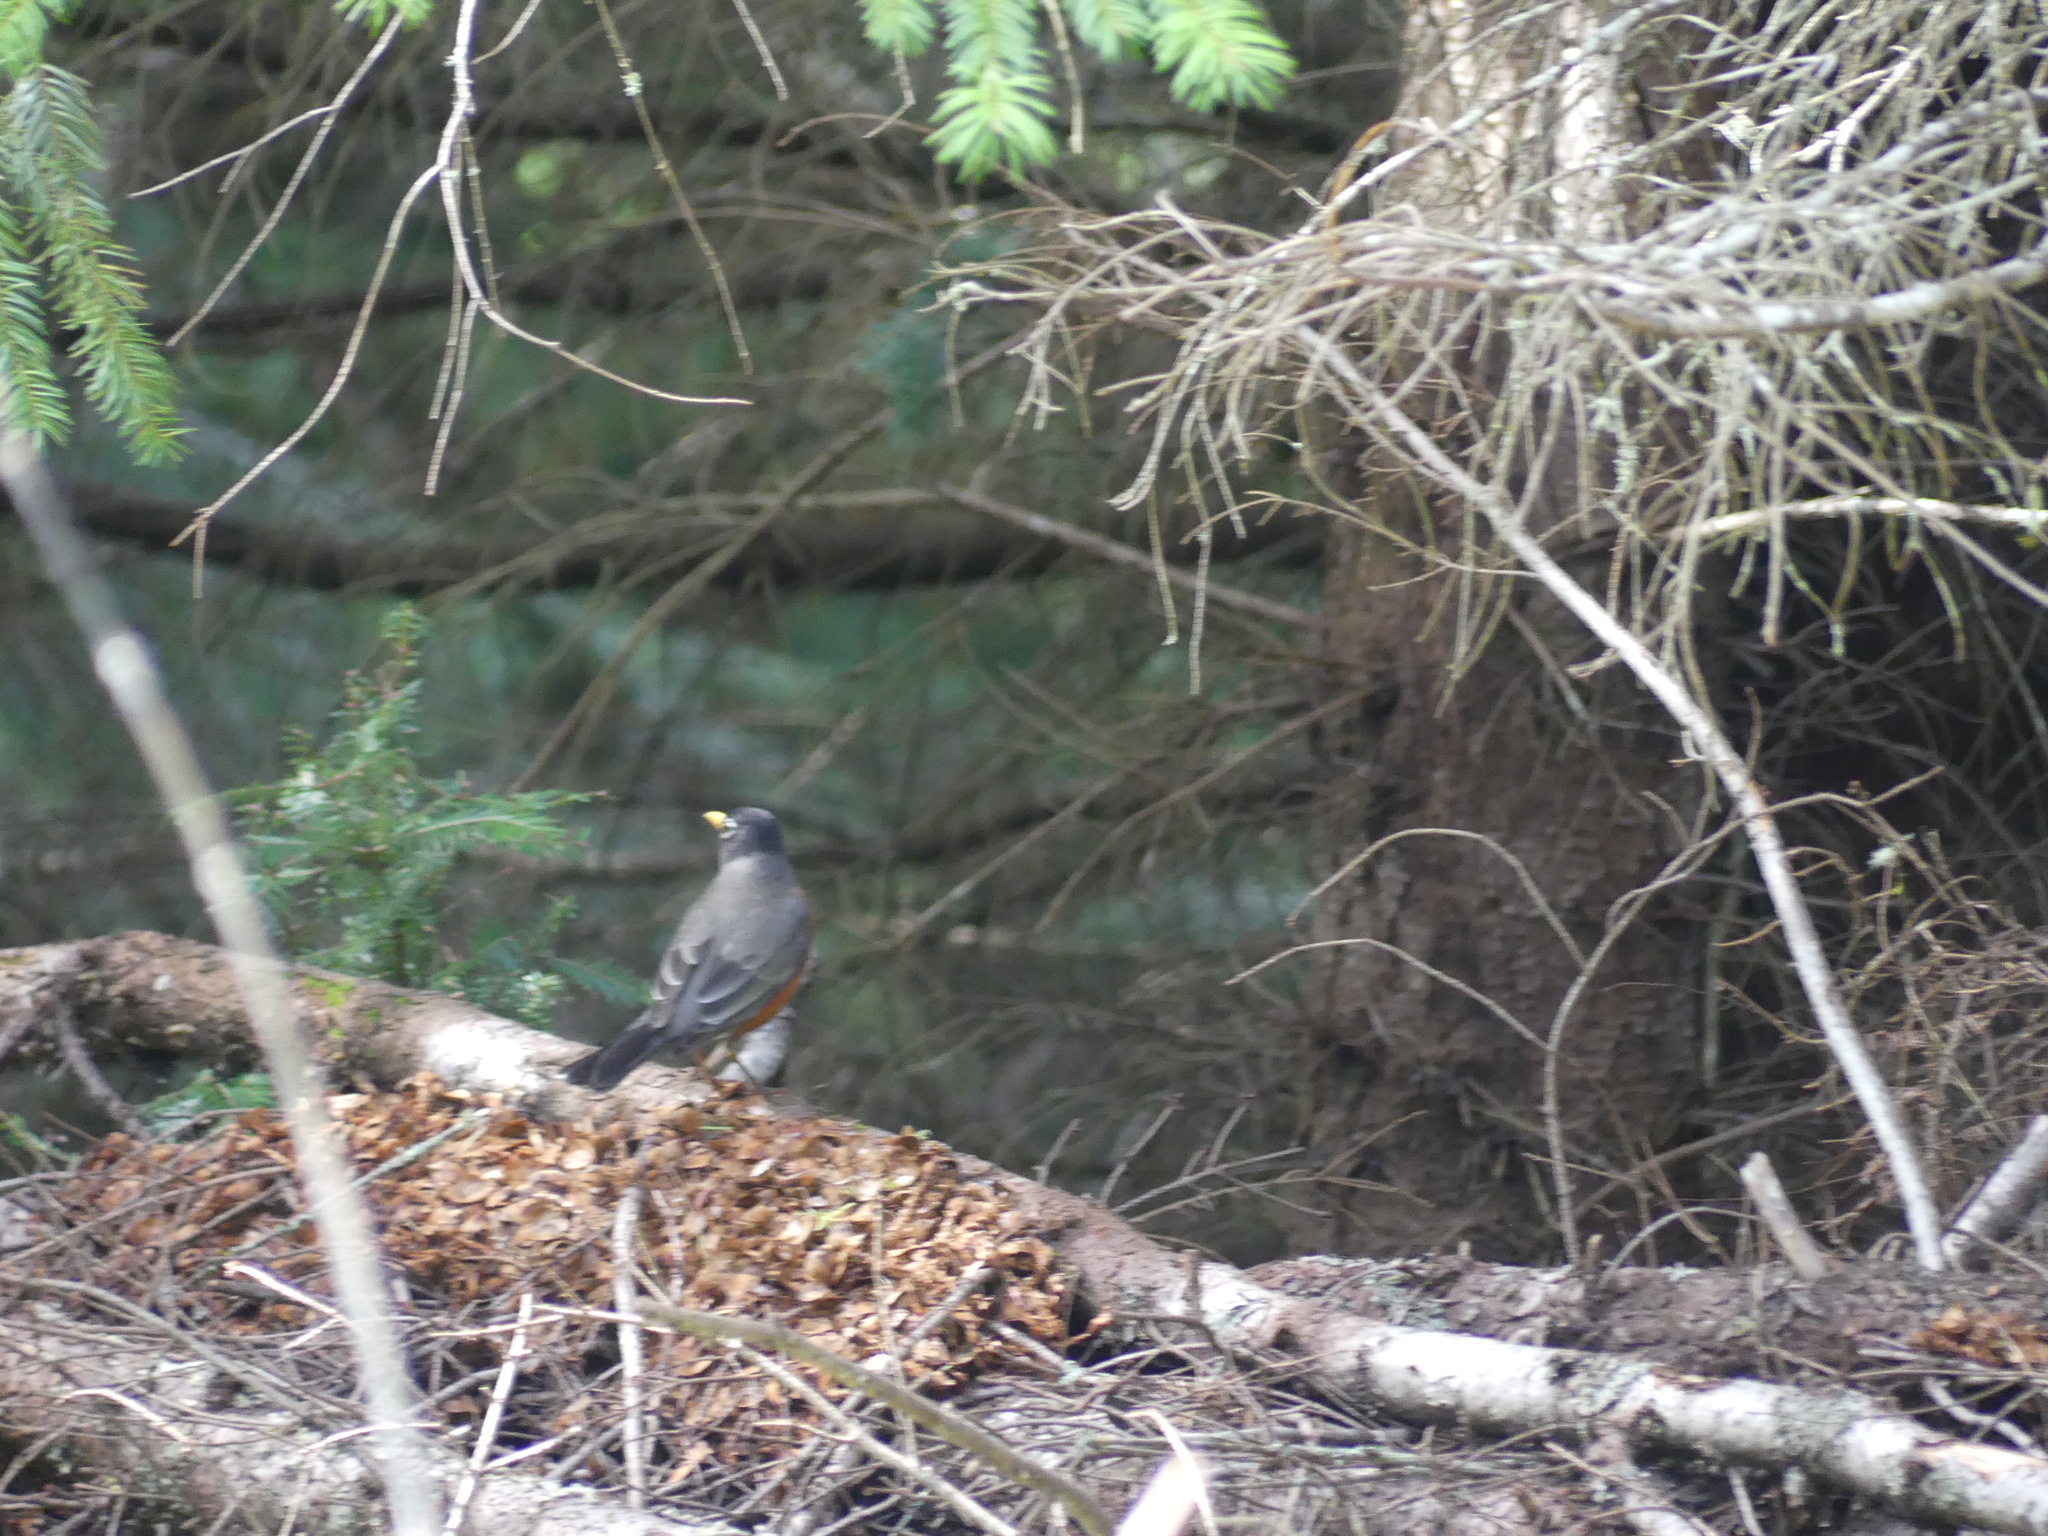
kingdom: Animalia
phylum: Chordata
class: Aves
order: Passeriformes
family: Turdidae
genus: Turdus
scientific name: Turdus migratorius
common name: American robin
